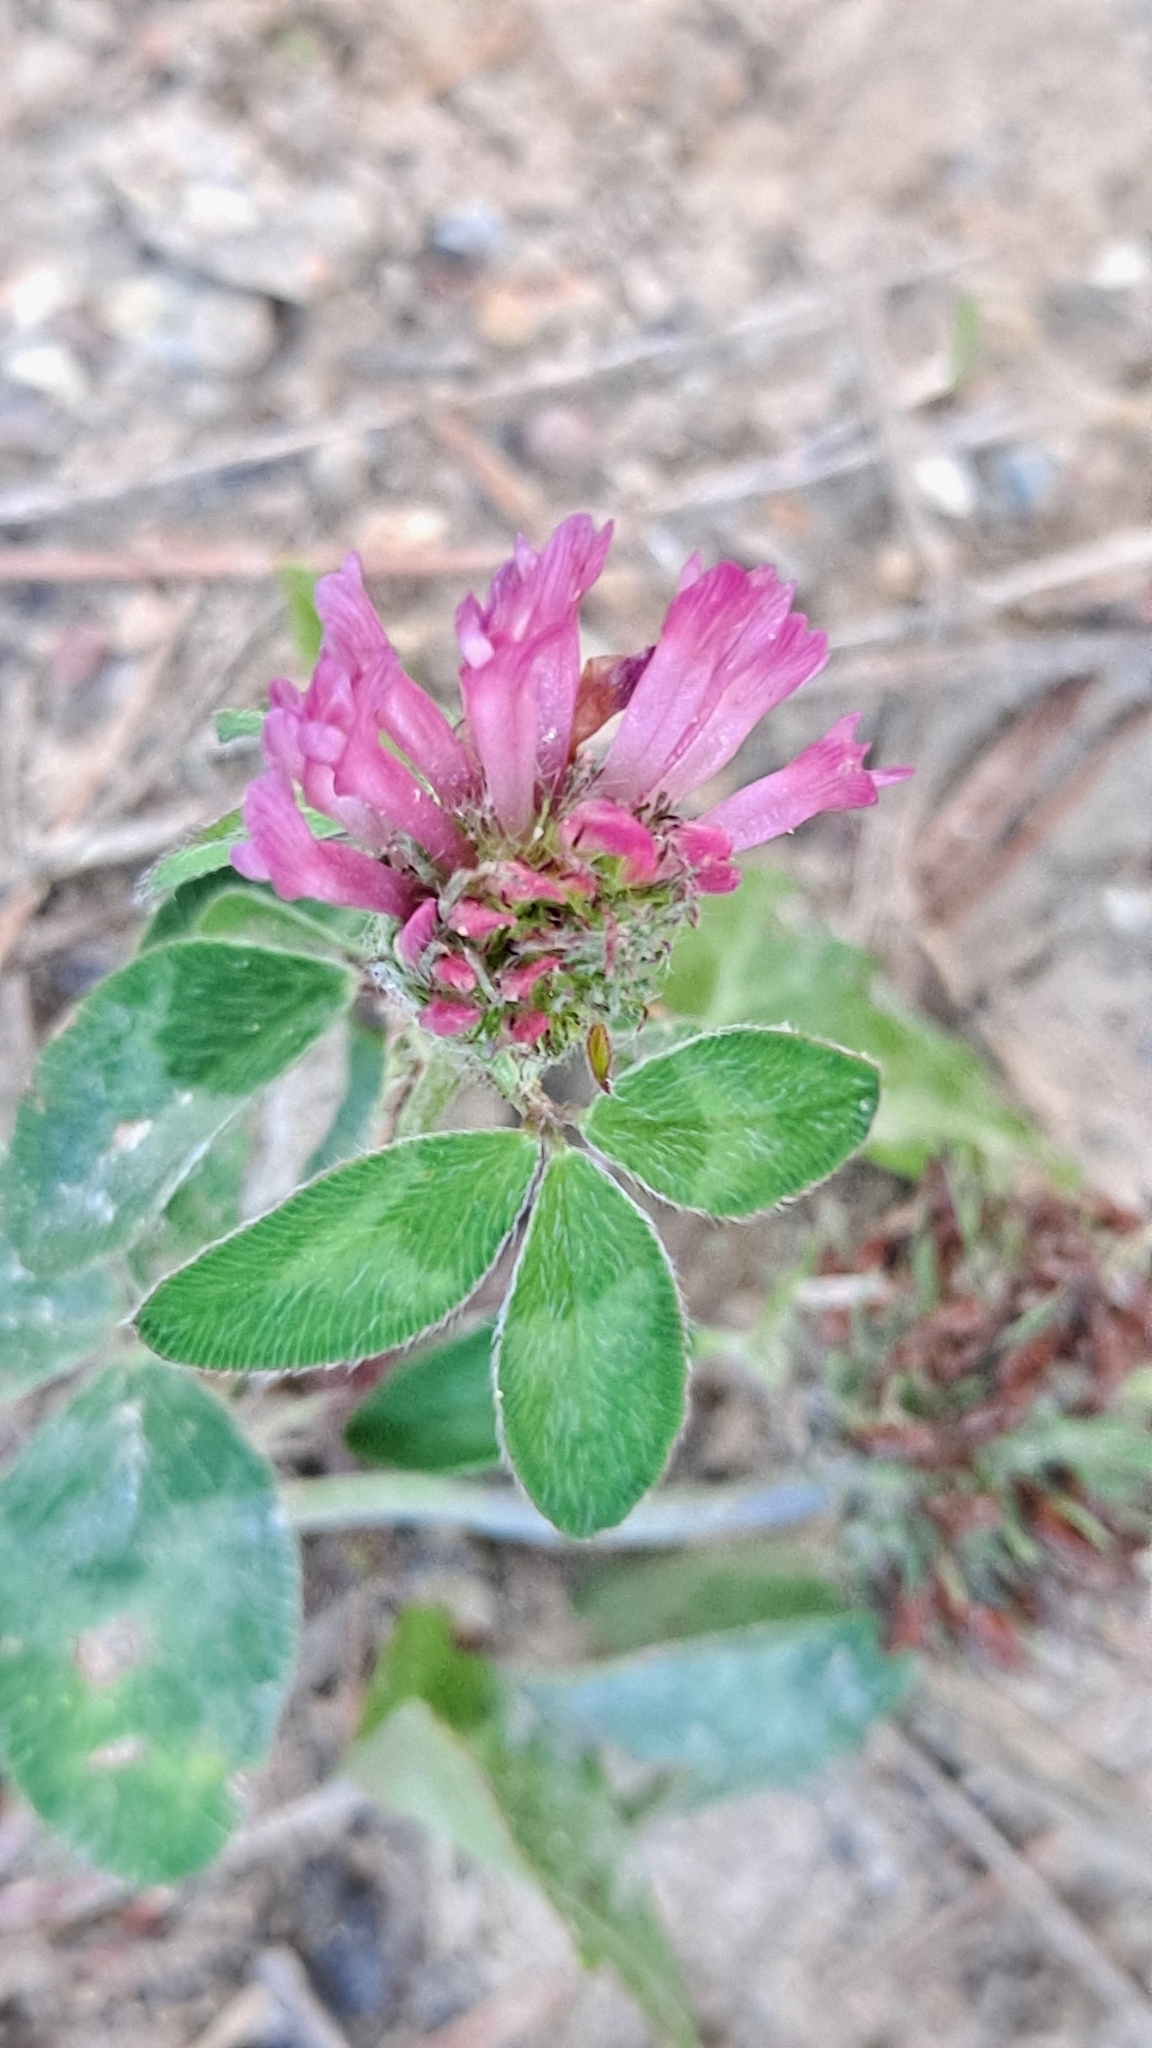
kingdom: Plantae
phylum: Tracheophyta
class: Magnoliopsida
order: Fabales
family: Fabaceae
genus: Trifolium
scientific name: Trifolium pratense
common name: Red clover
